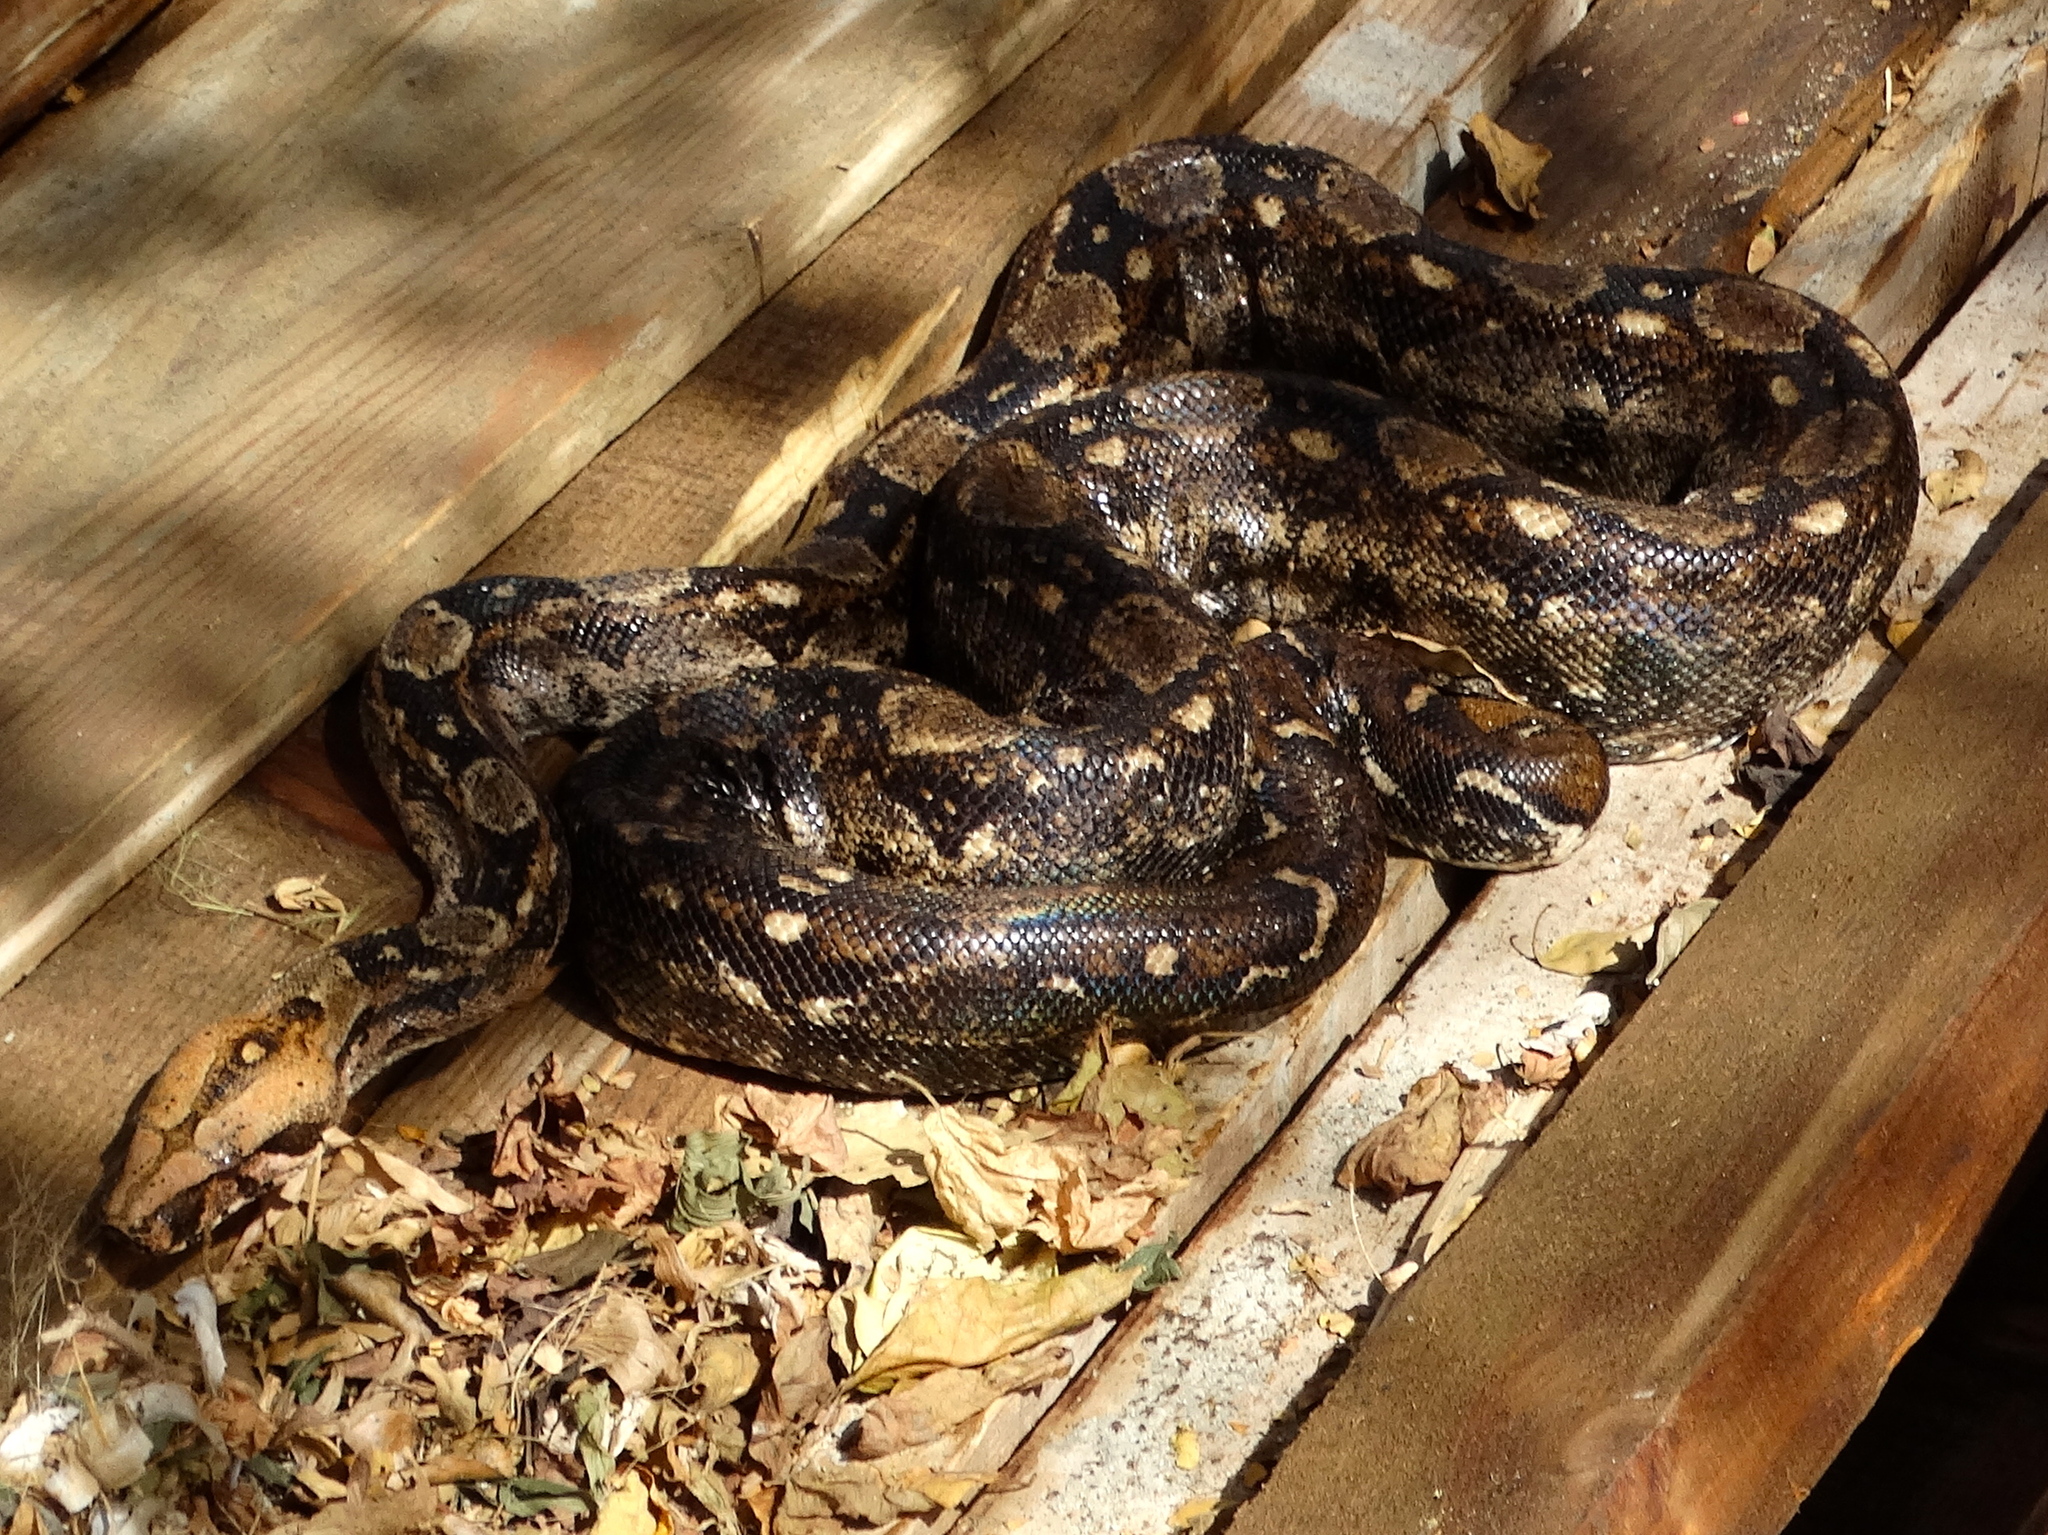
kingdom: Animalia
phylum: Chordata
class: Squamata
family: Boidae
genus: Boa
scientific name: Boa
